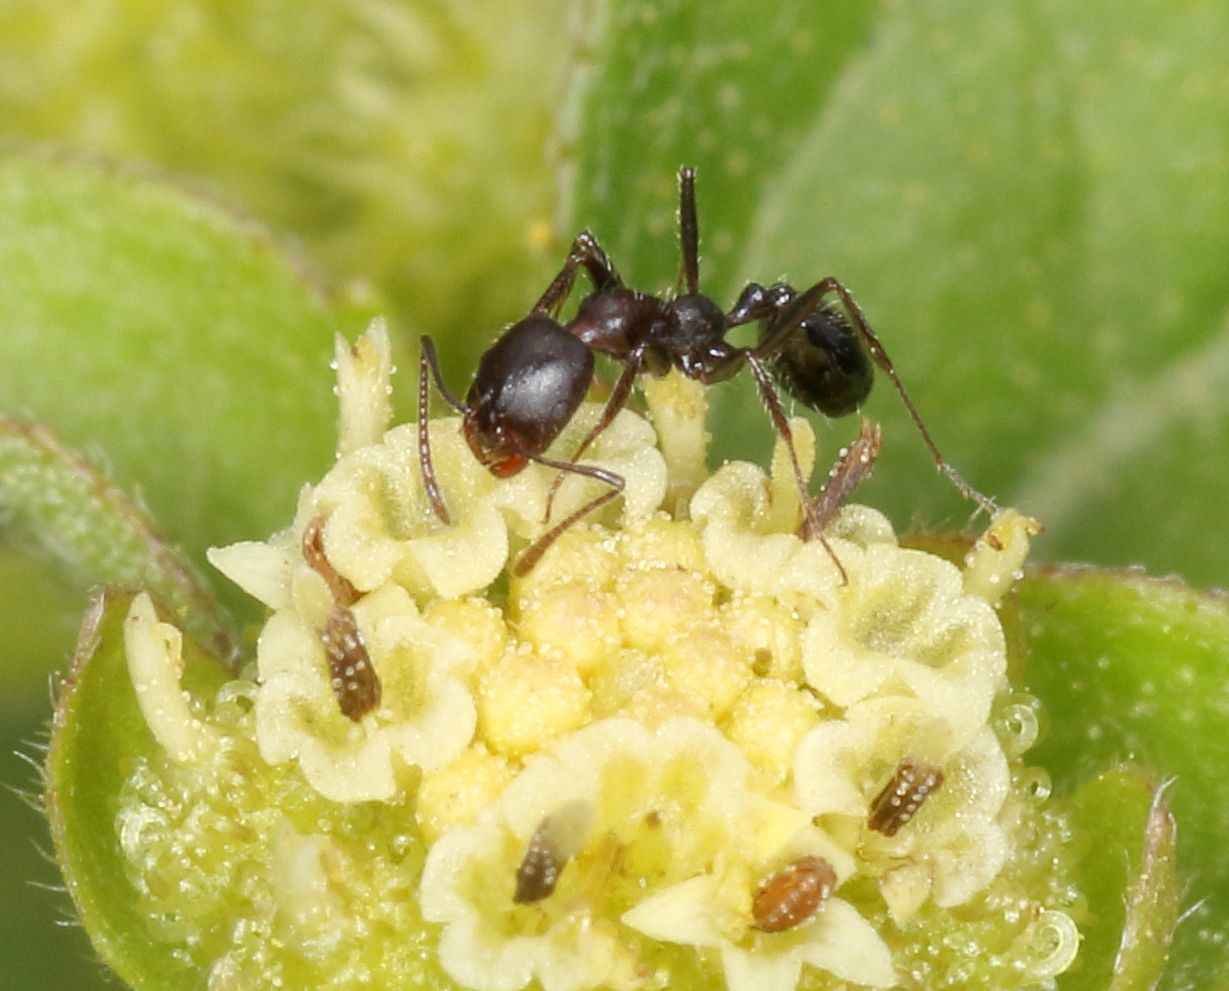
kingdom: Animalia
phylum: Arthropoda
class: Insecta
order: Hymenoptera
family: Formicidae
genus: Monomorium
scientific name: Monomorium junodi
